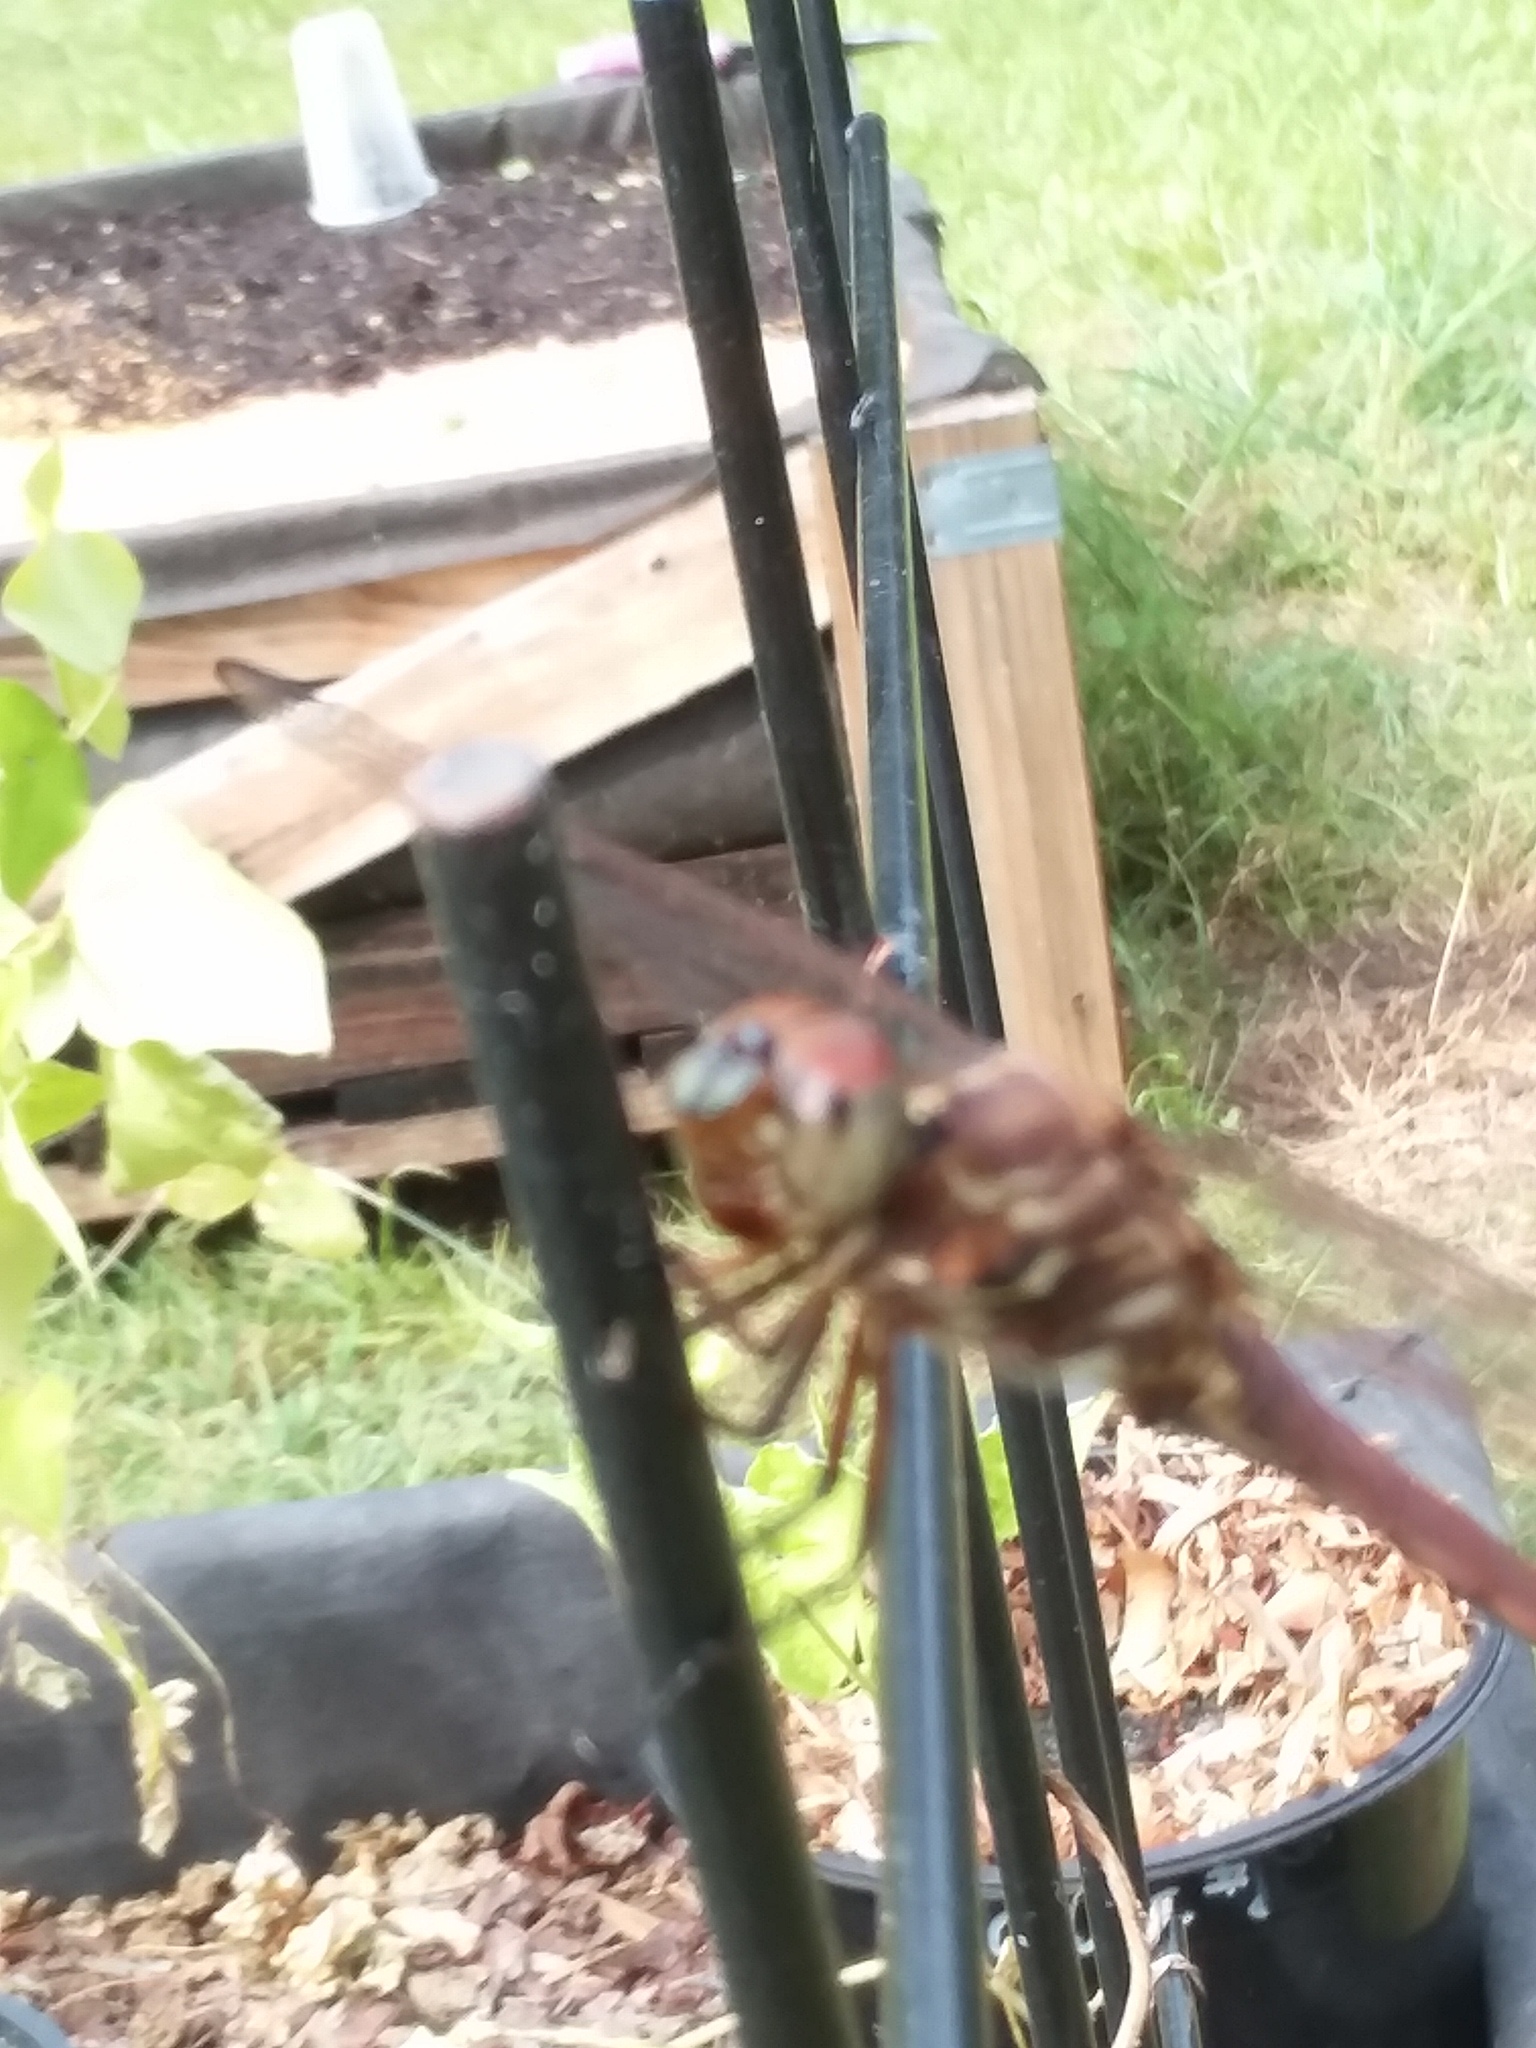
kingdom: Animalia
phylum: Arthropoda
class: Insecta
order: Odonata
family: Libellulidae
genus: Orthemis
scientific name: Orthemis ferruginea
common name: Roseate skimmer
